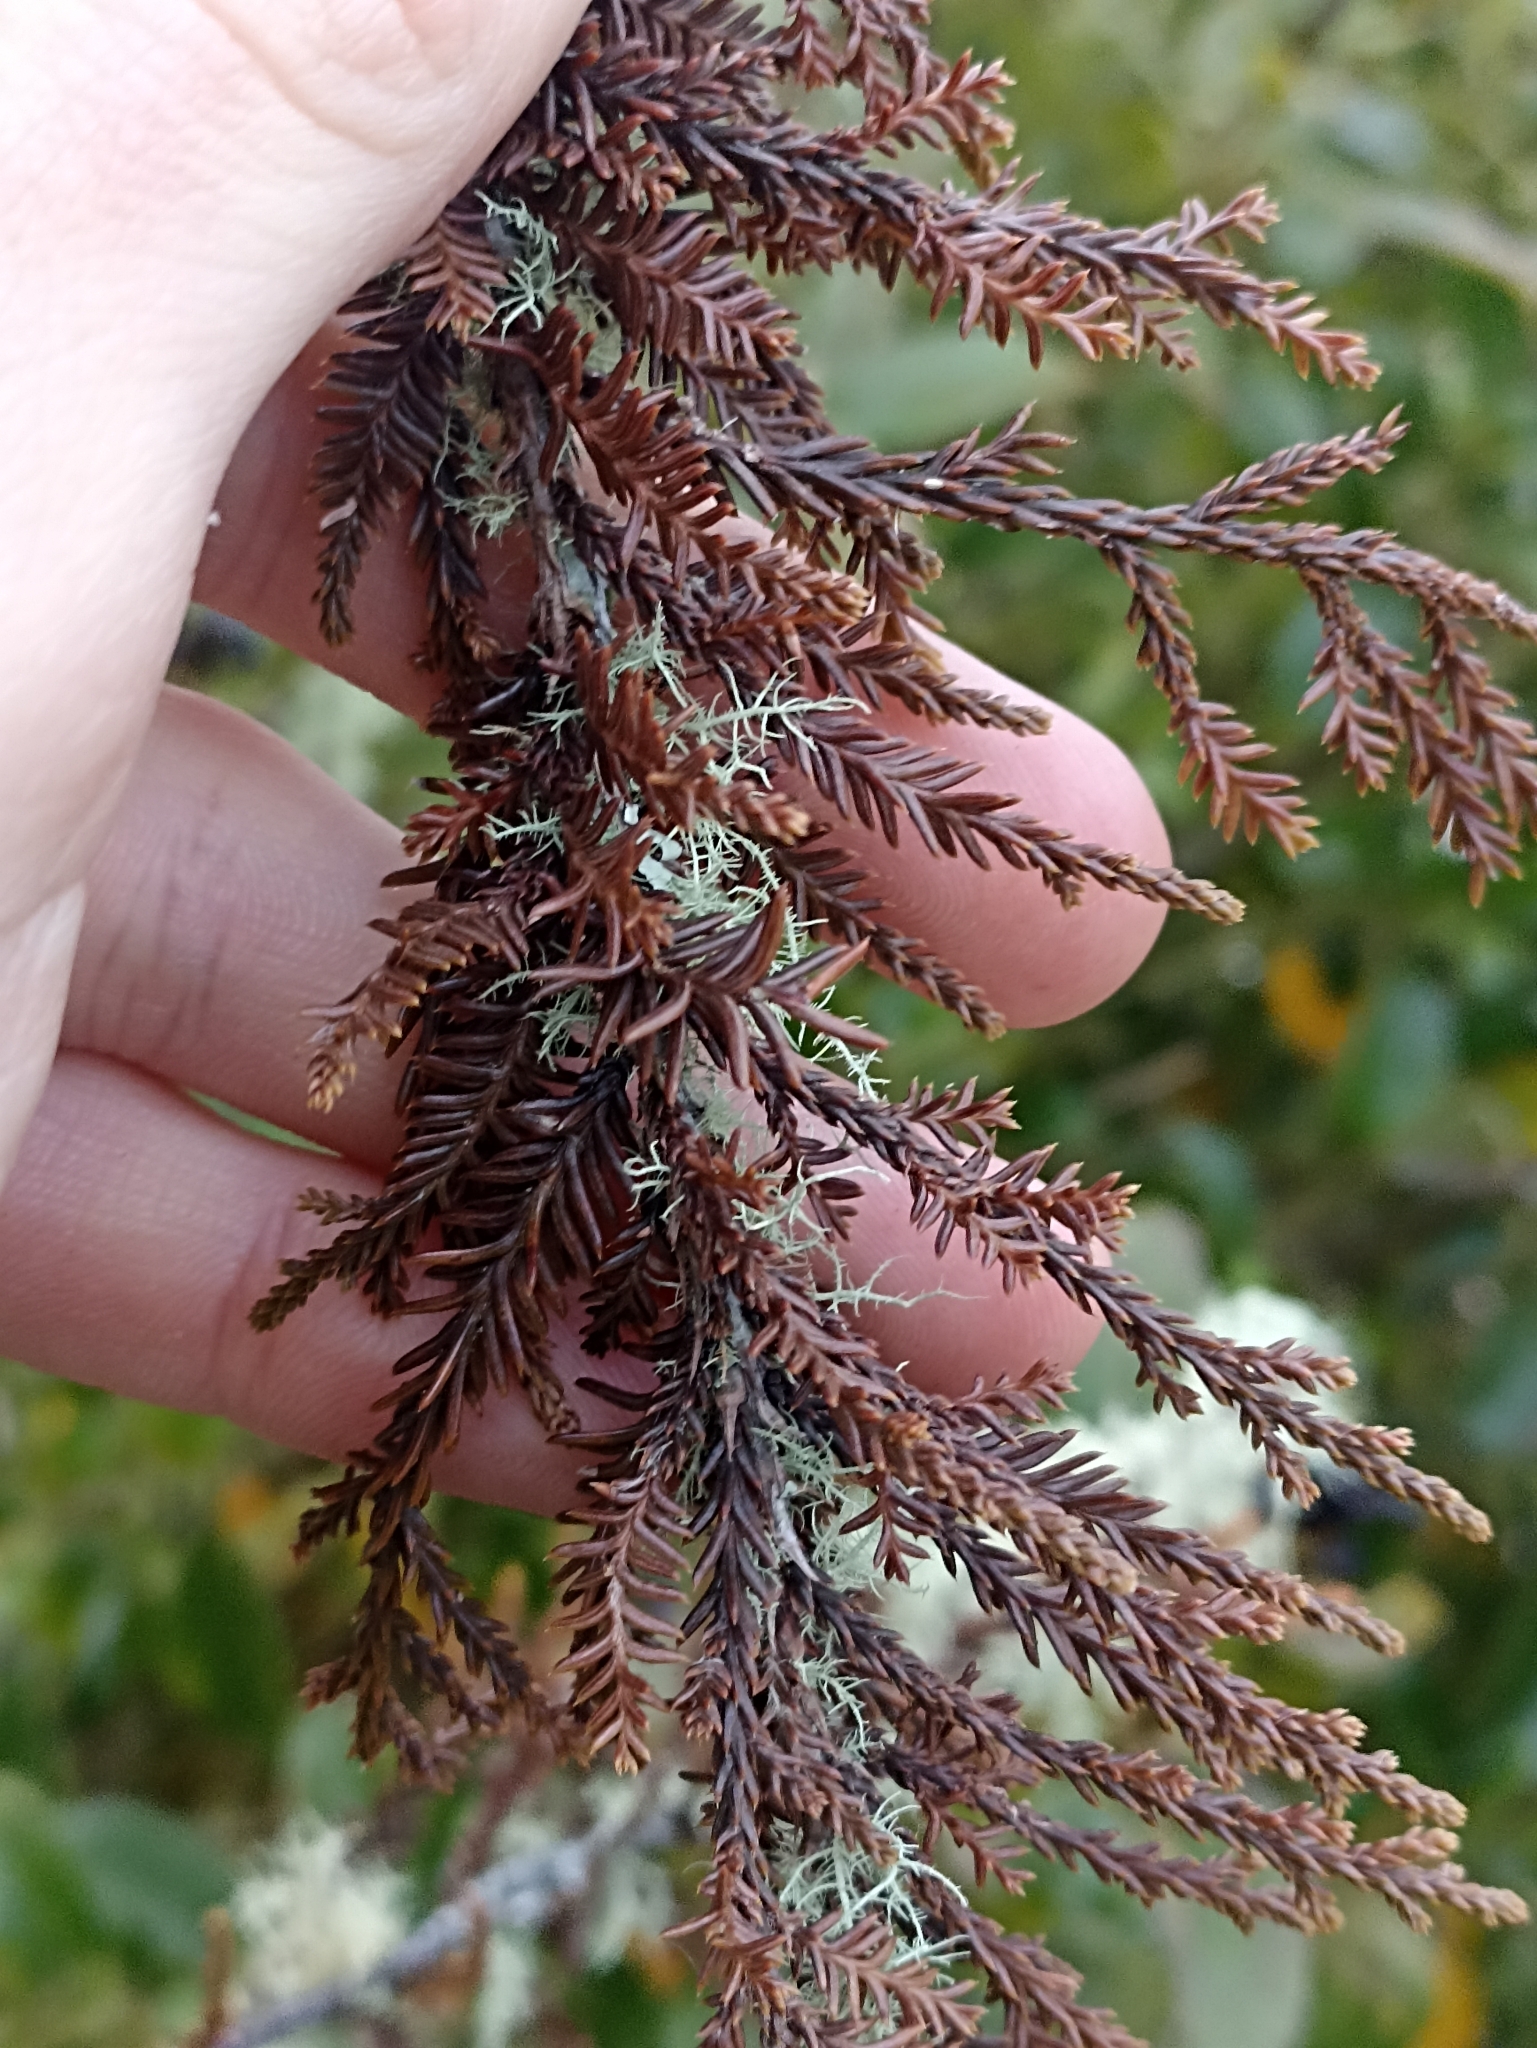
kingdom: Plantae
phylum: Tracheophyta
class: Pinopsida
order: Pinales
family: Podocarpaceae
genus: Dacrycarpus
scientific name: Dacrycarpus dacrydioides
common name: White pine
